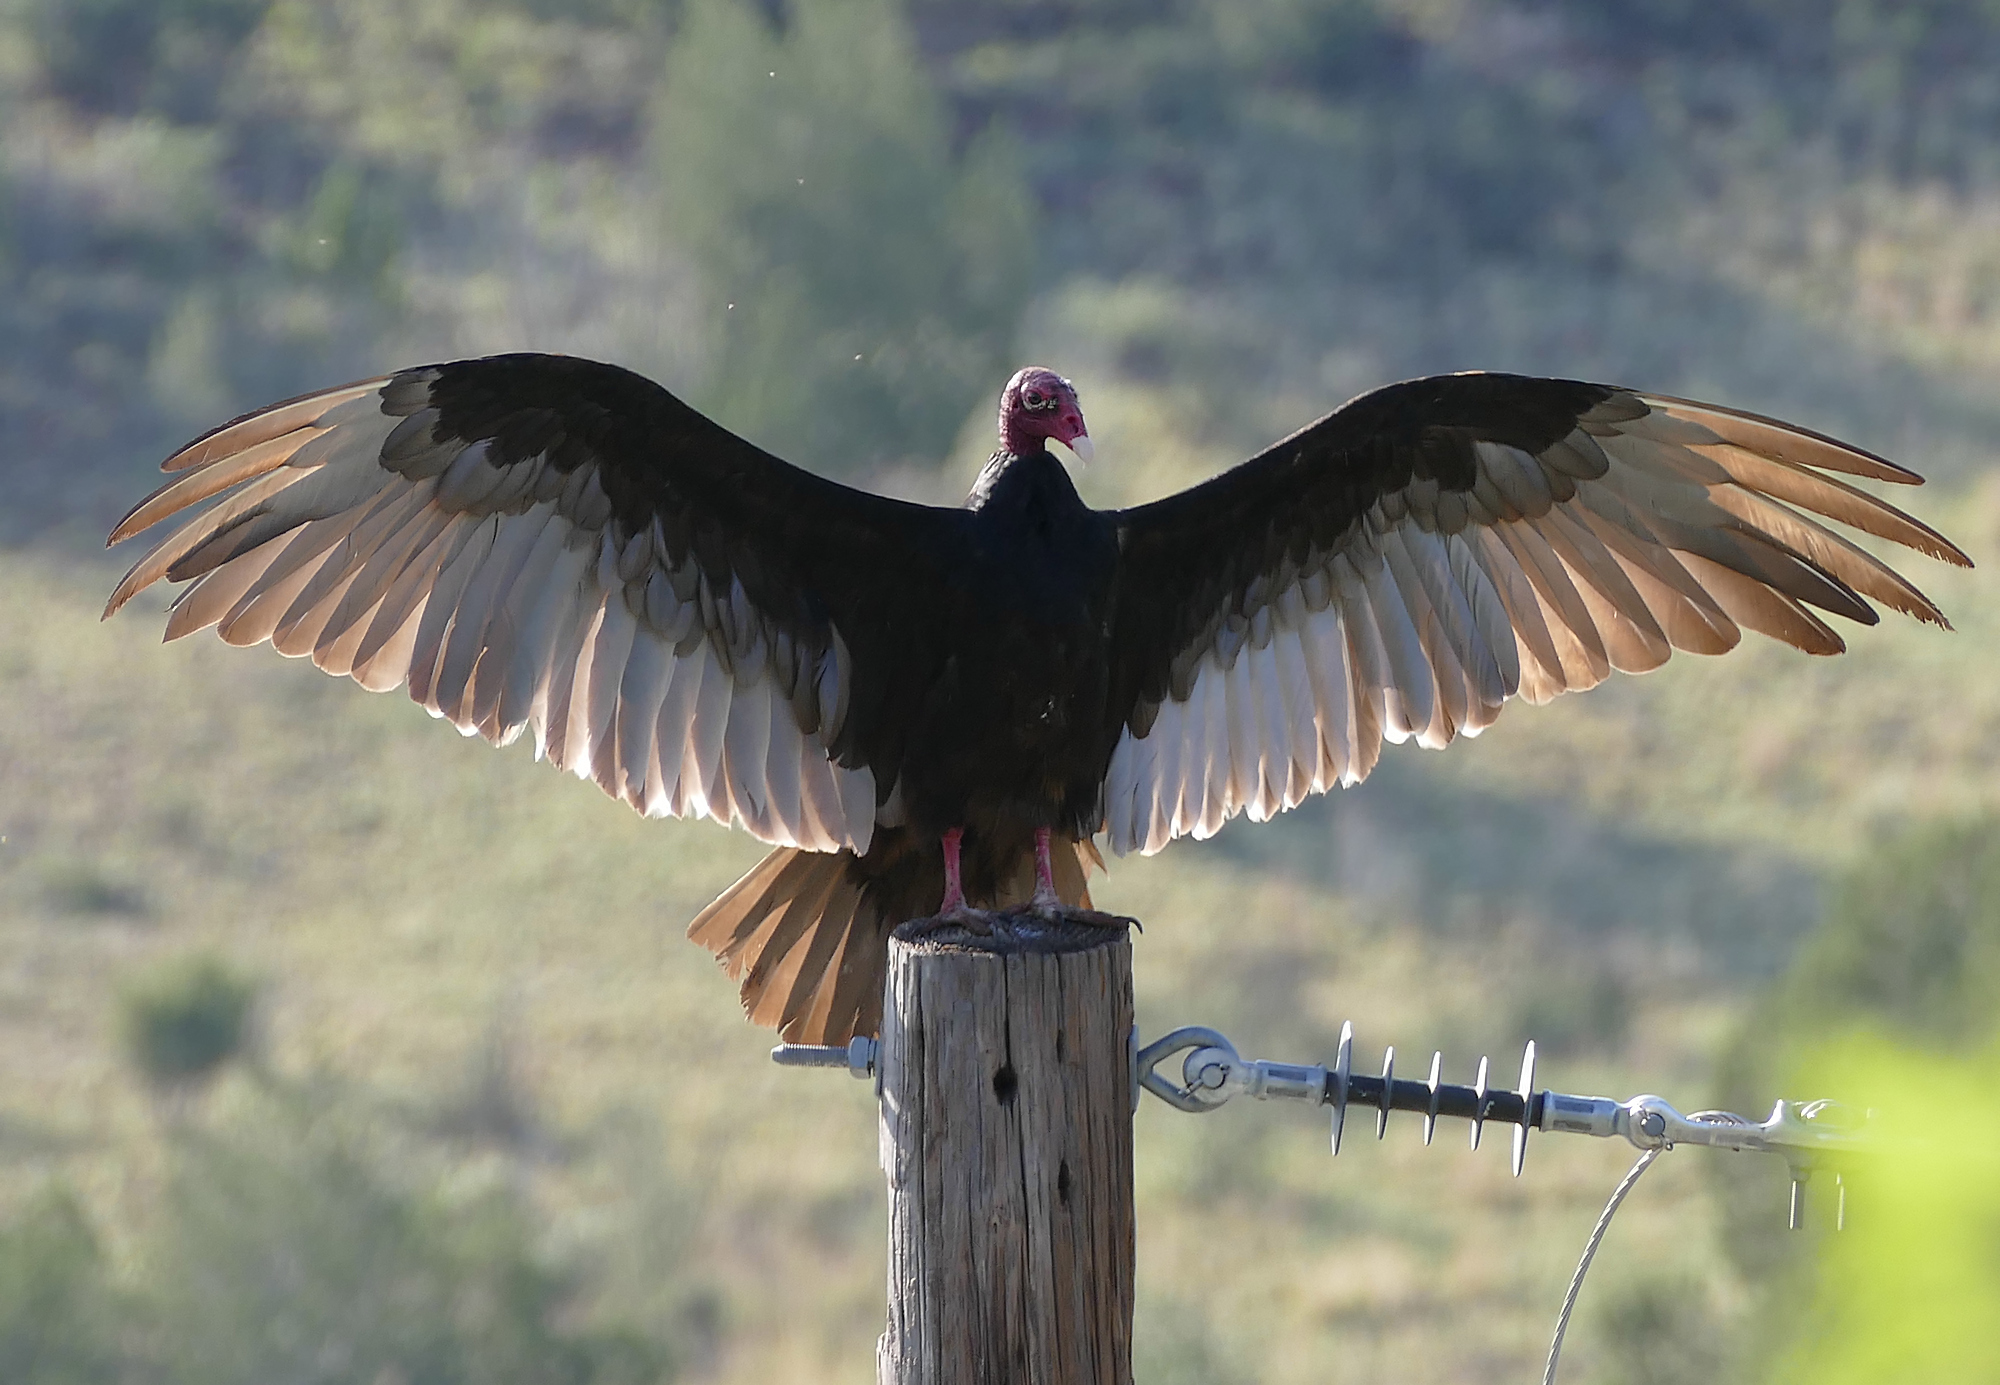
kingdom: Animalia
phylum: Chordata
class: Aves
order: Accipitriformes
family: Cathartidae
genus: Cathartes
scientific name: Cathartes aura
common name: Turkey vulture
